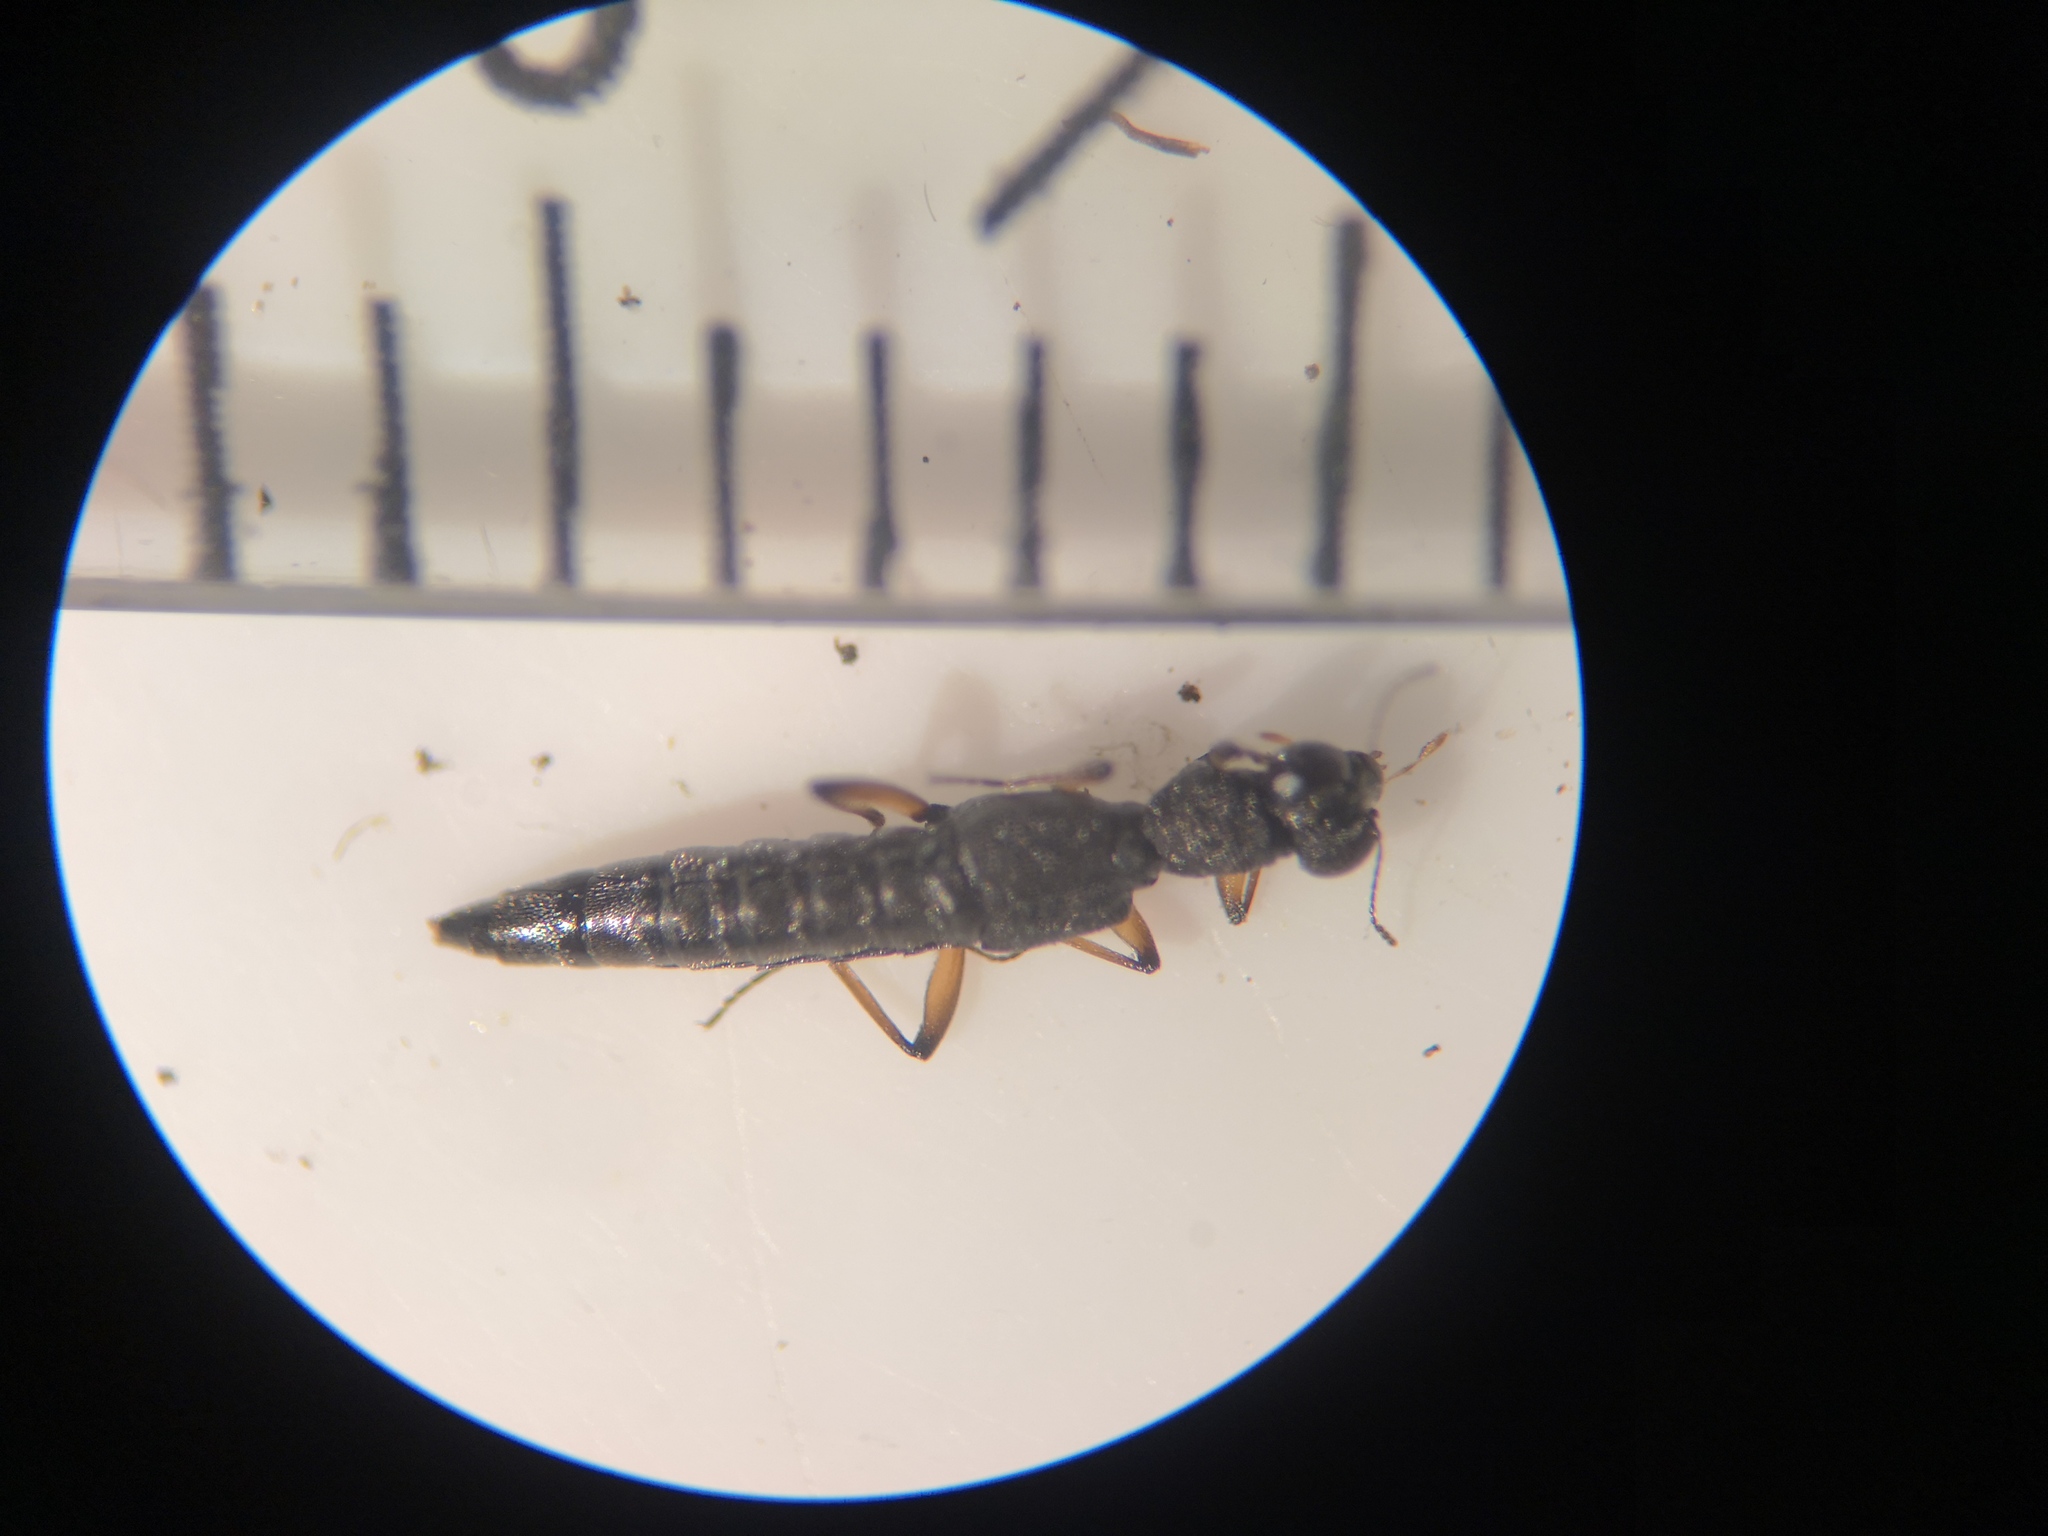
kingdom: Animalia
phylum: Arthropoda
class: Insecta
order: Coleoptera
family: Staphylinidae
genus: Stenus
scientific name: Stenus clavicornis
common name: Staph beetle
